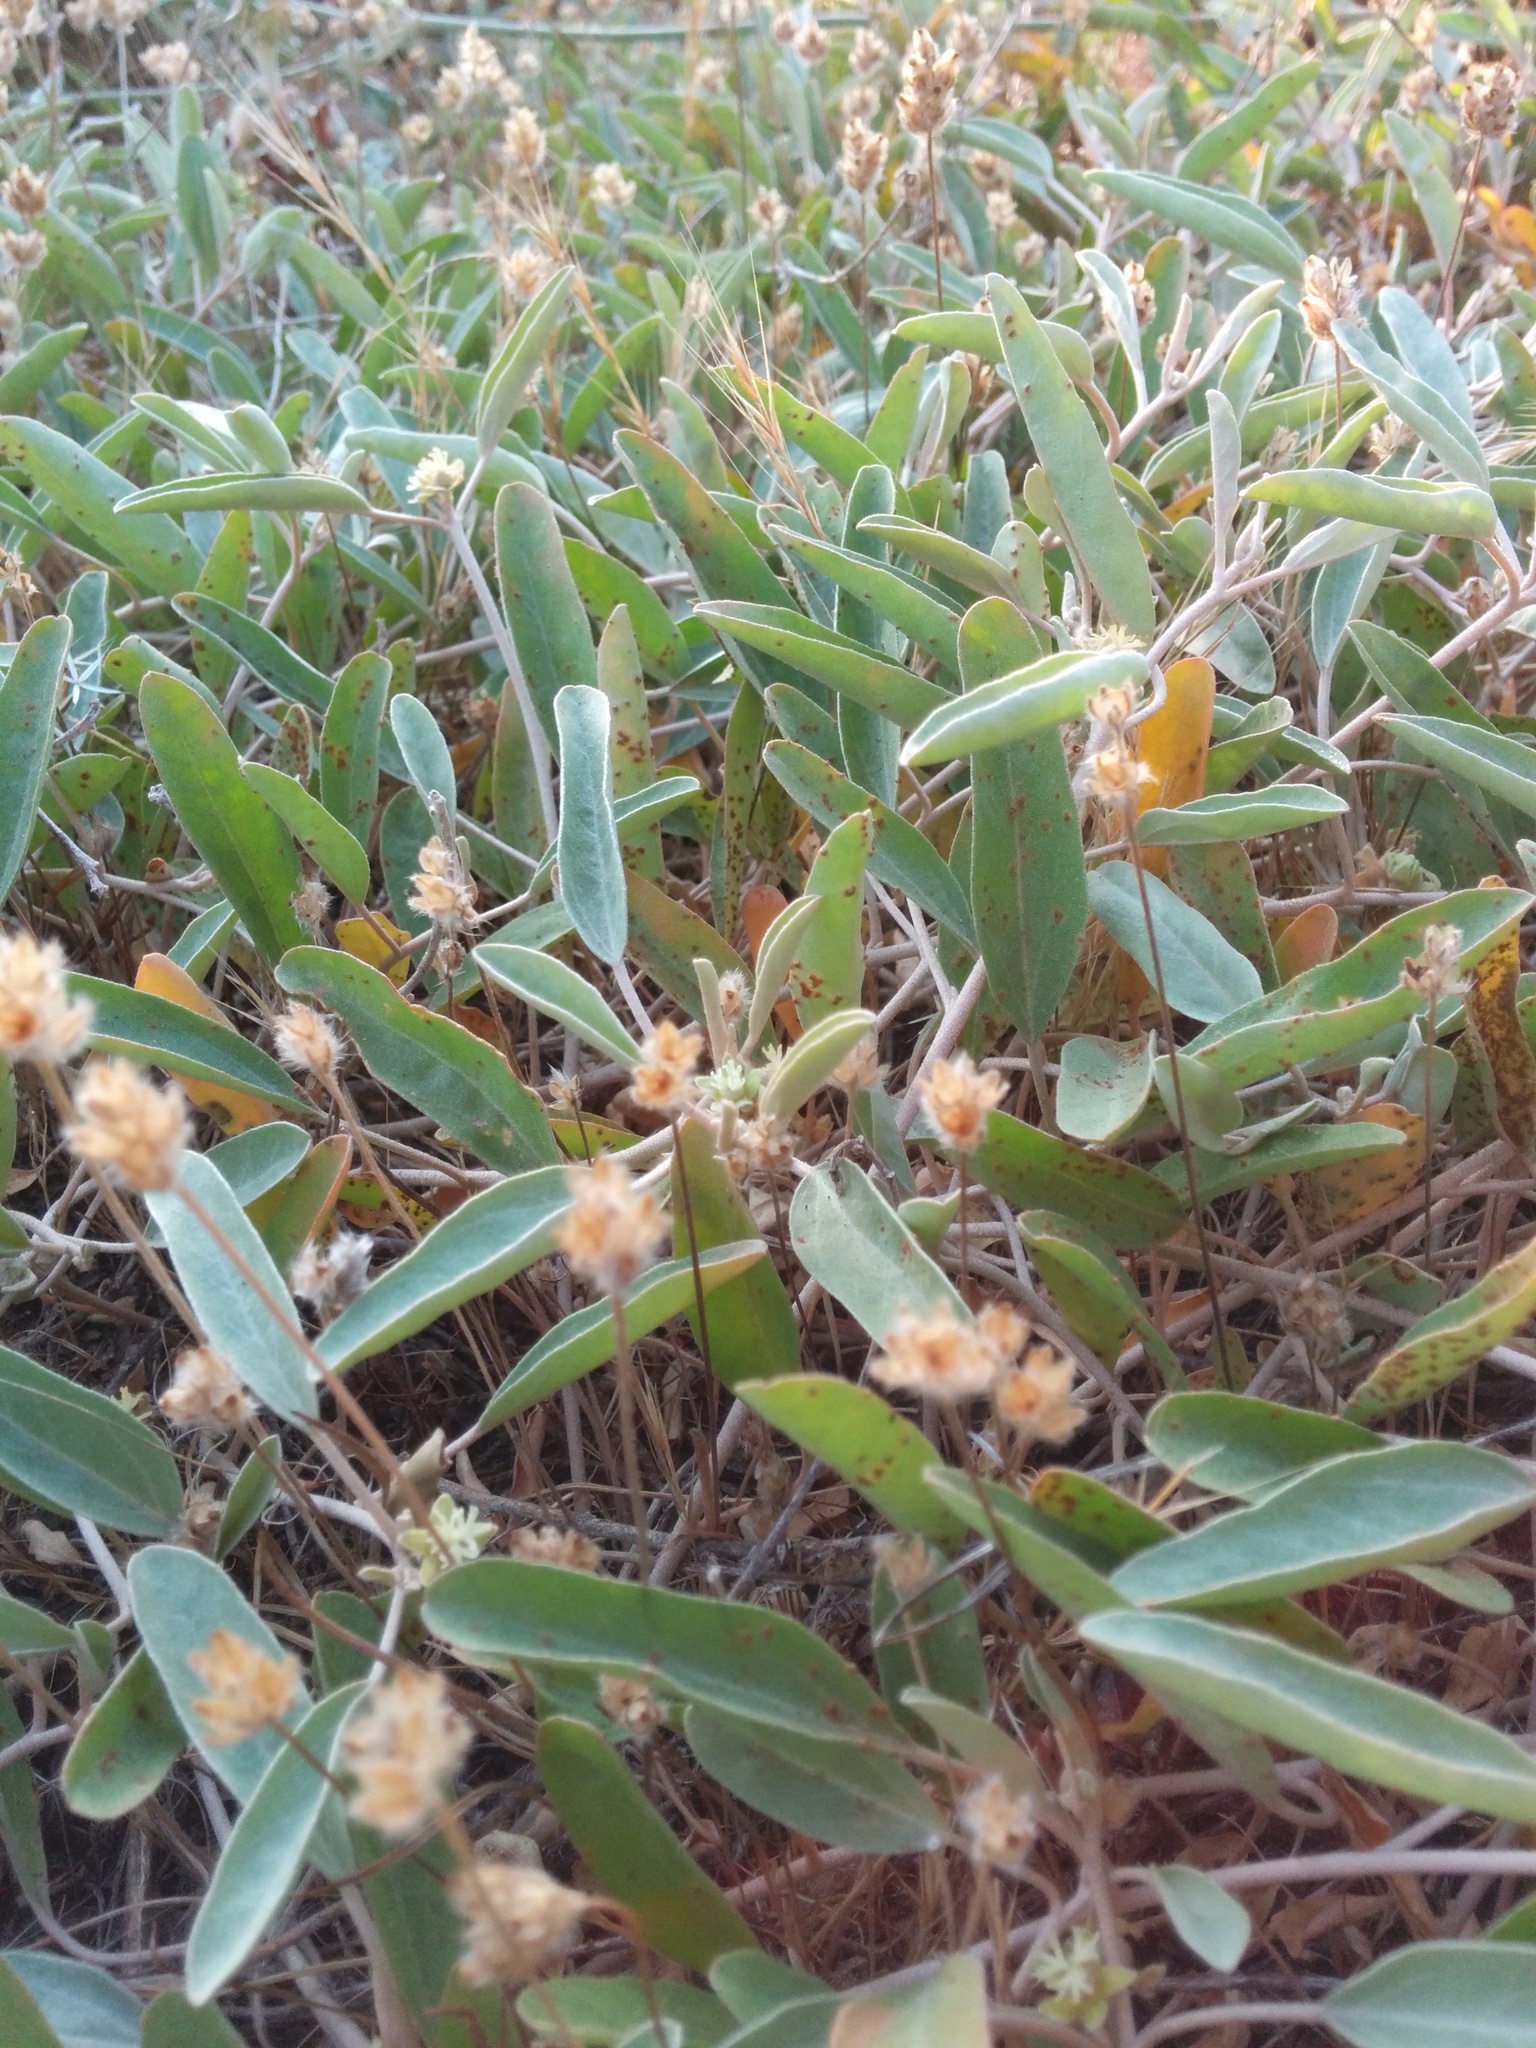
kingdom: Plantae
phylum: Tracheophyta
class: Magnoliopsida
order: Malpighiales
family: Euphorbiaceae
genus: Croton
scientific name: Croton californicus
